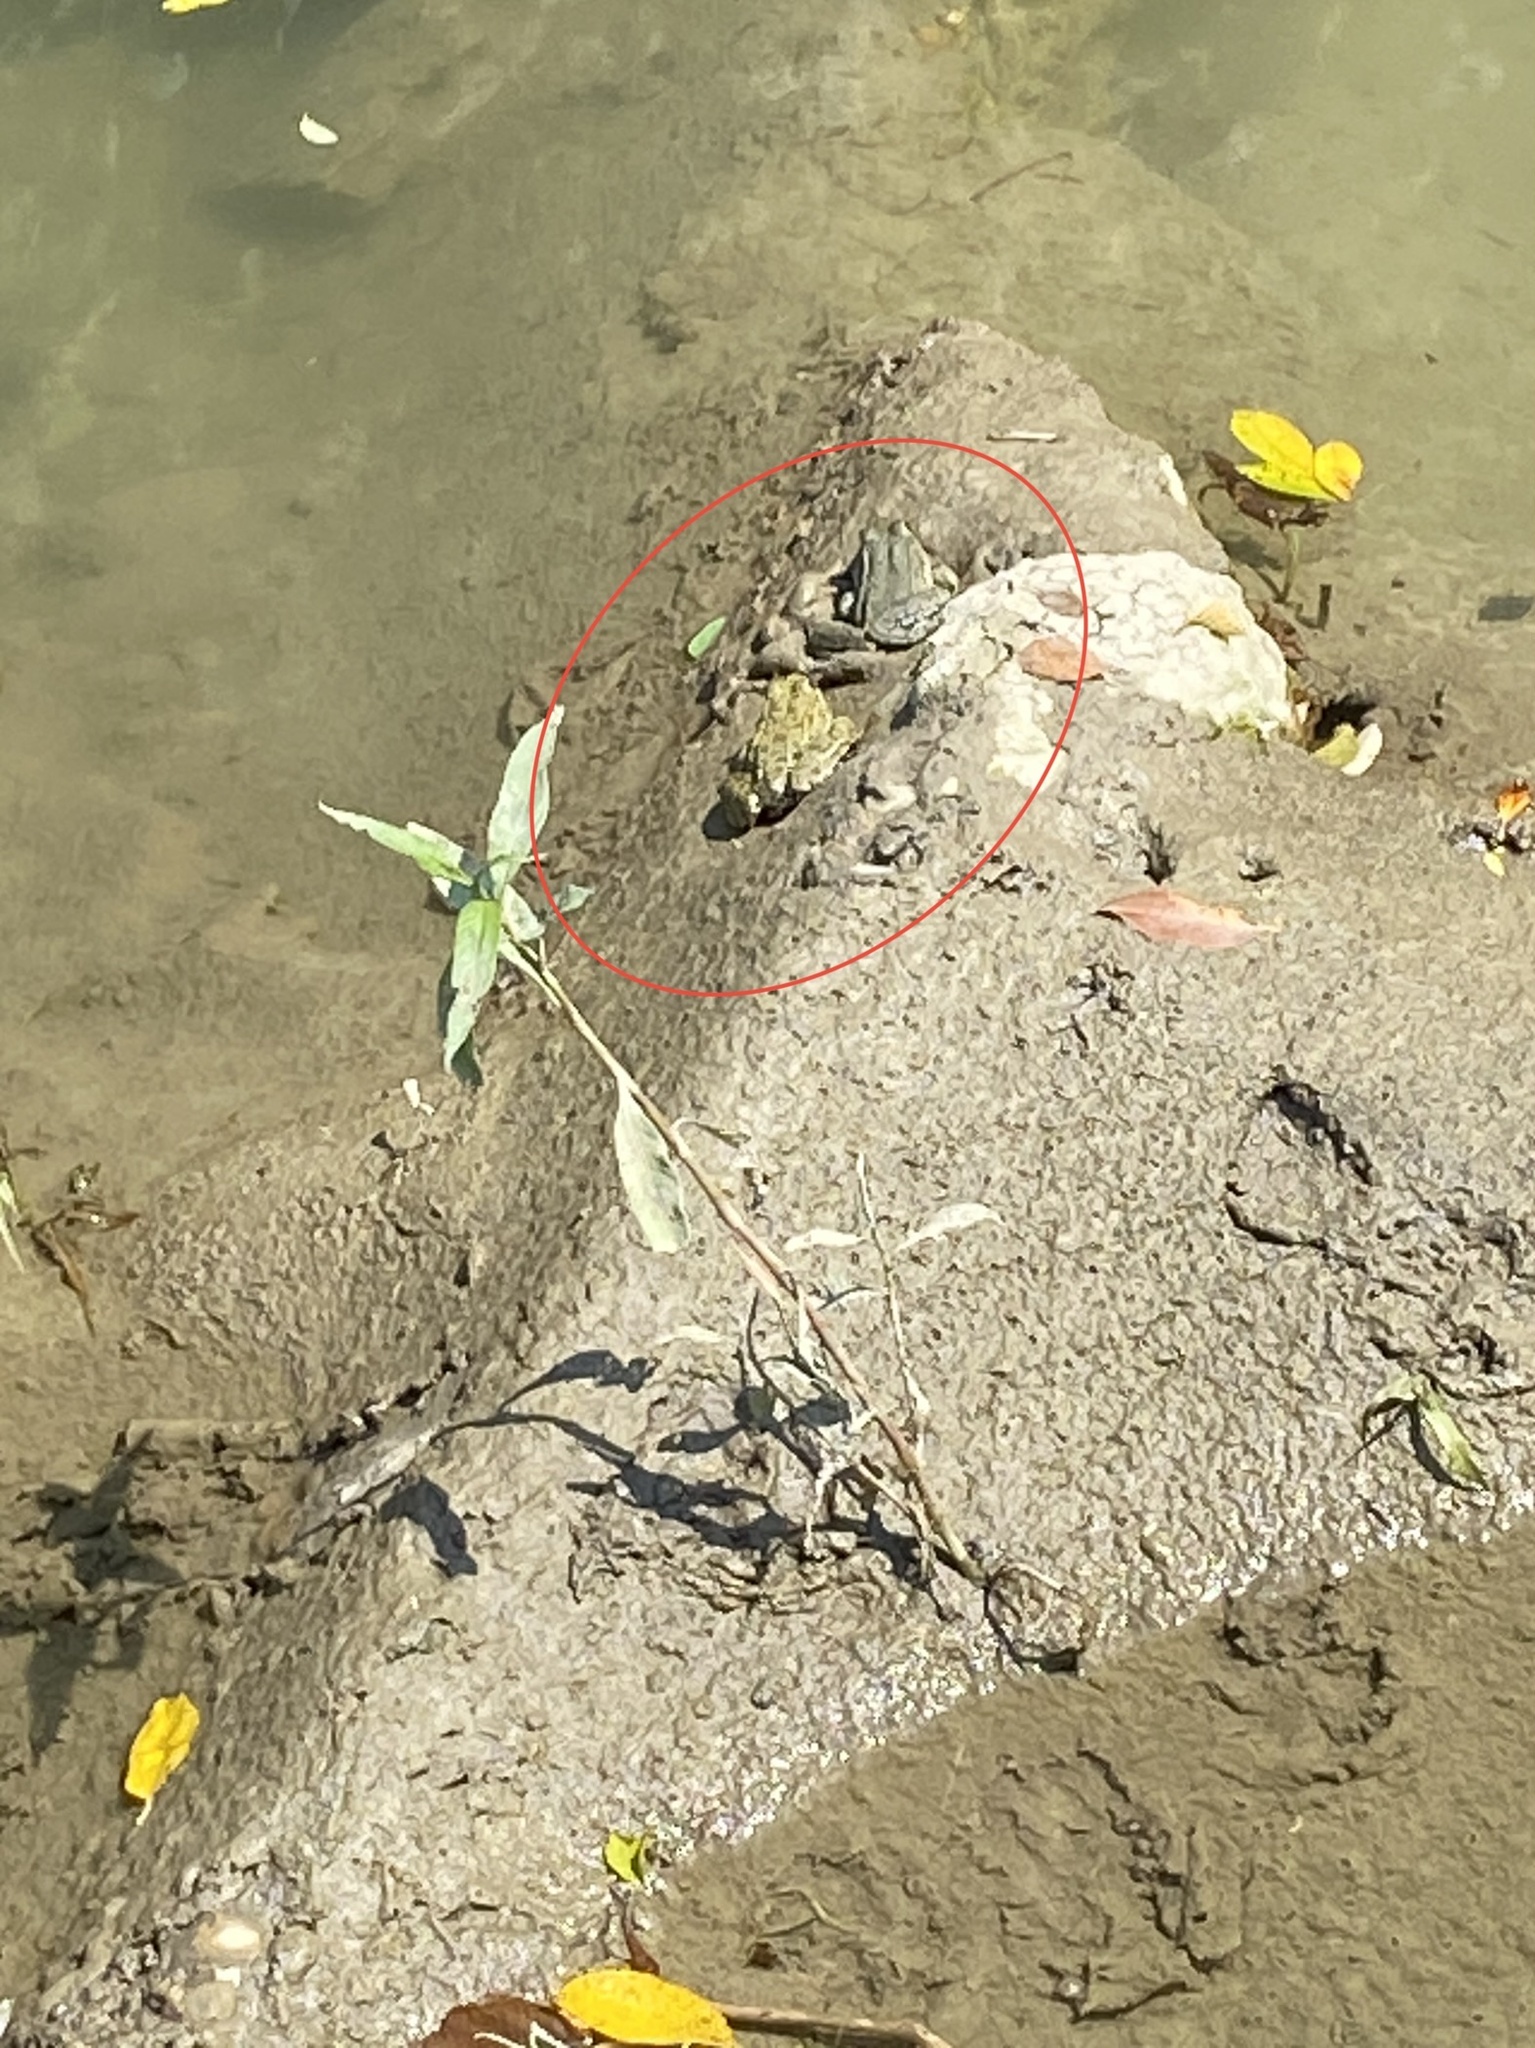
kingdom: Animalia
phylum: Chordata
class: Amphibia
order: Anura
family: Ranidae
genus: Pelophylax
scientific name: Pelophylax ridibundus
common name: Marsh frog
